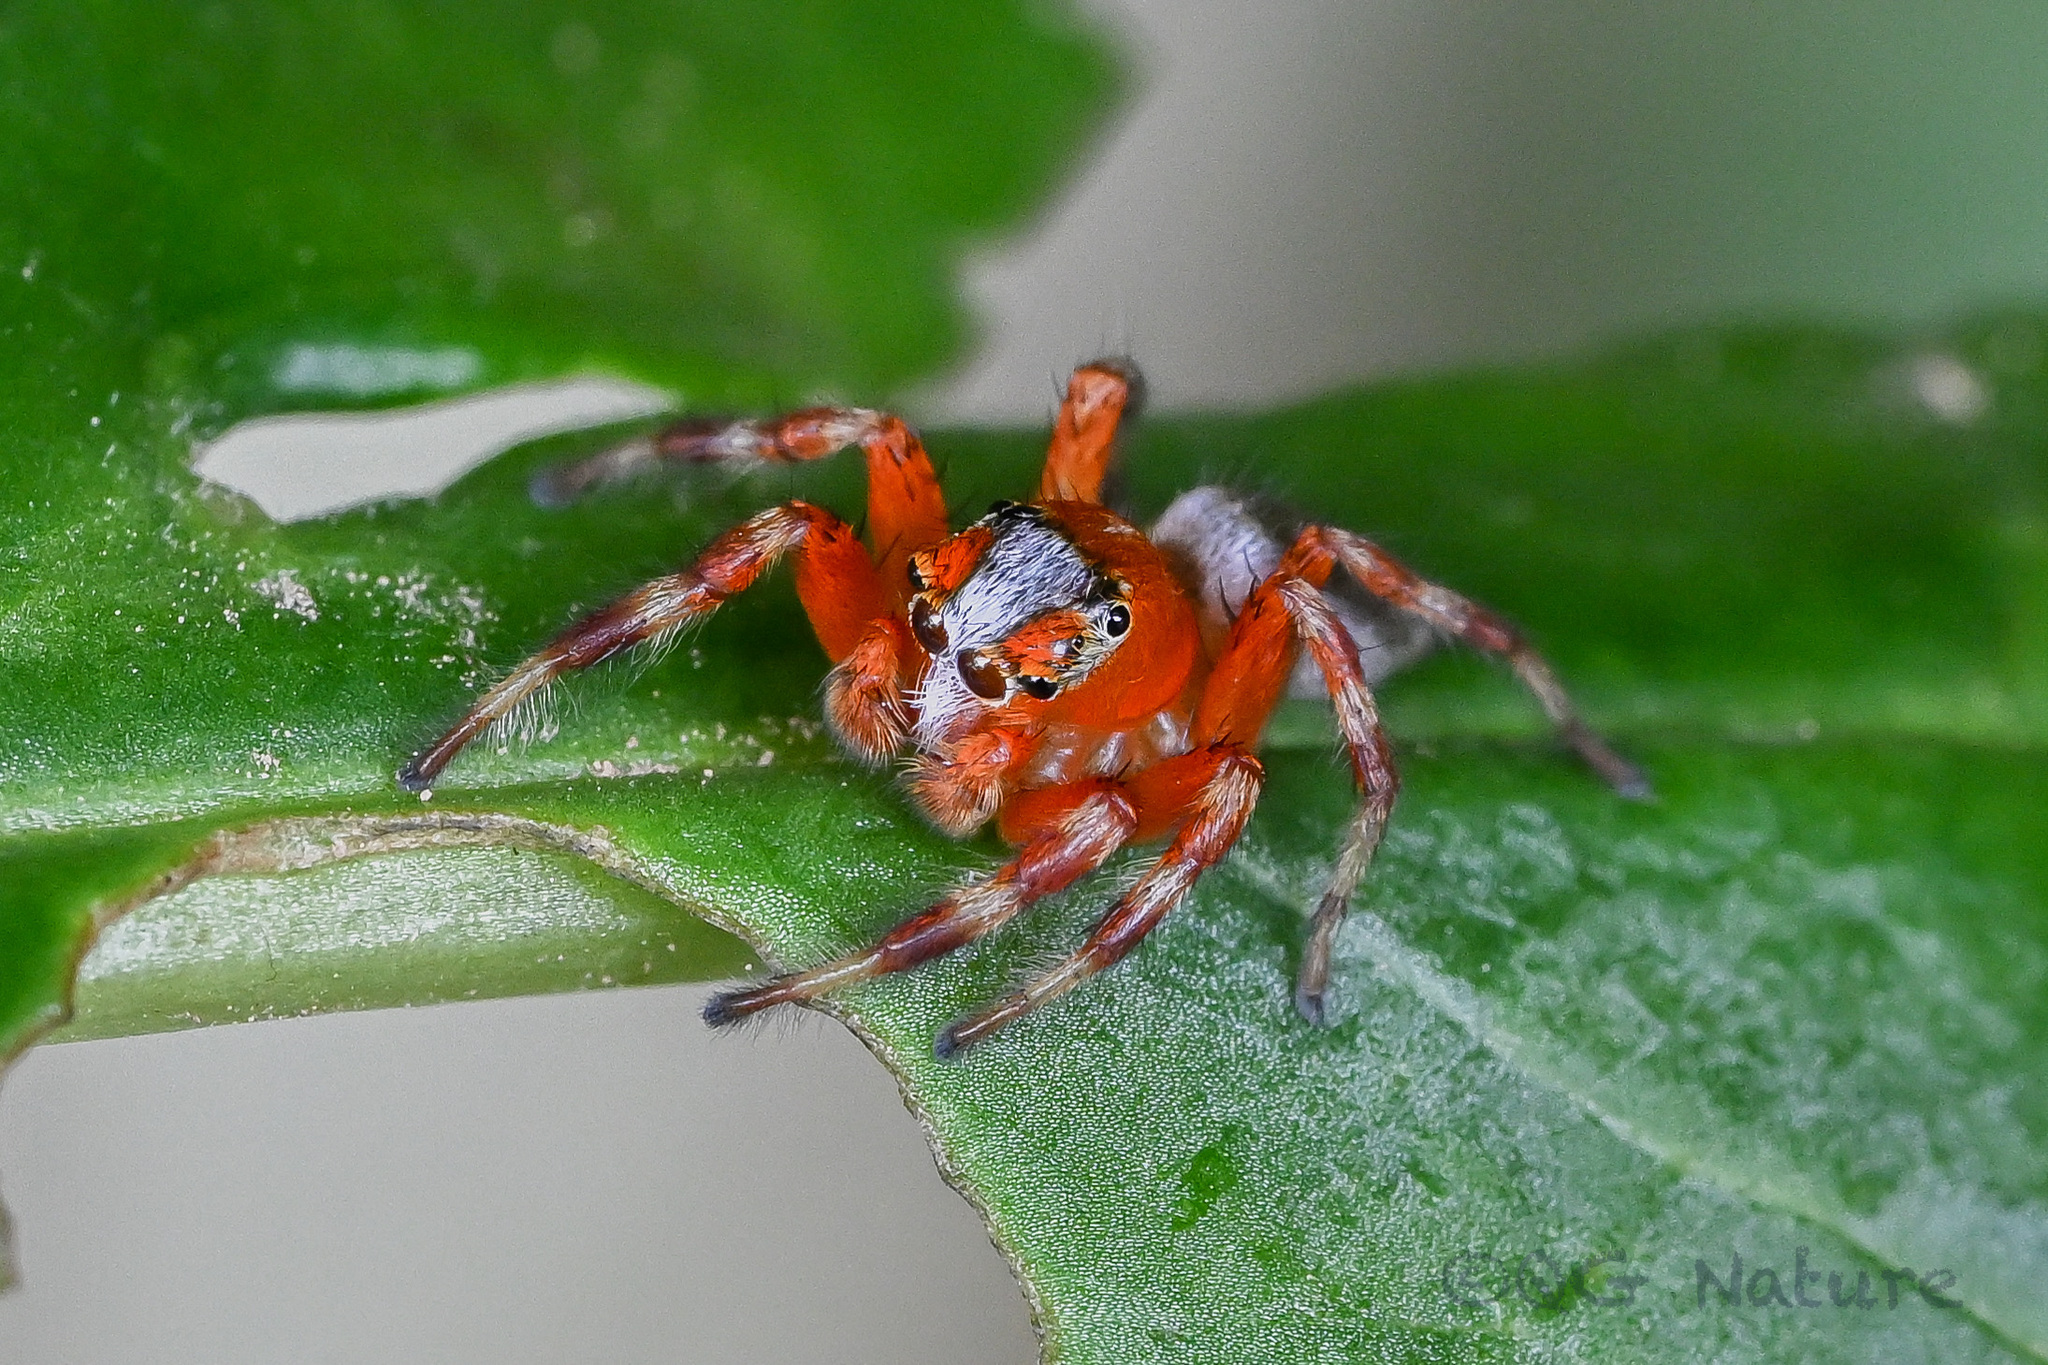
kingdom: Animalia
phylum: Arthropoda
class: Arachnida
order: Araneae
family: Salticidae
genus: Plexippoides
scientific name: Plexippoides annulipedis
